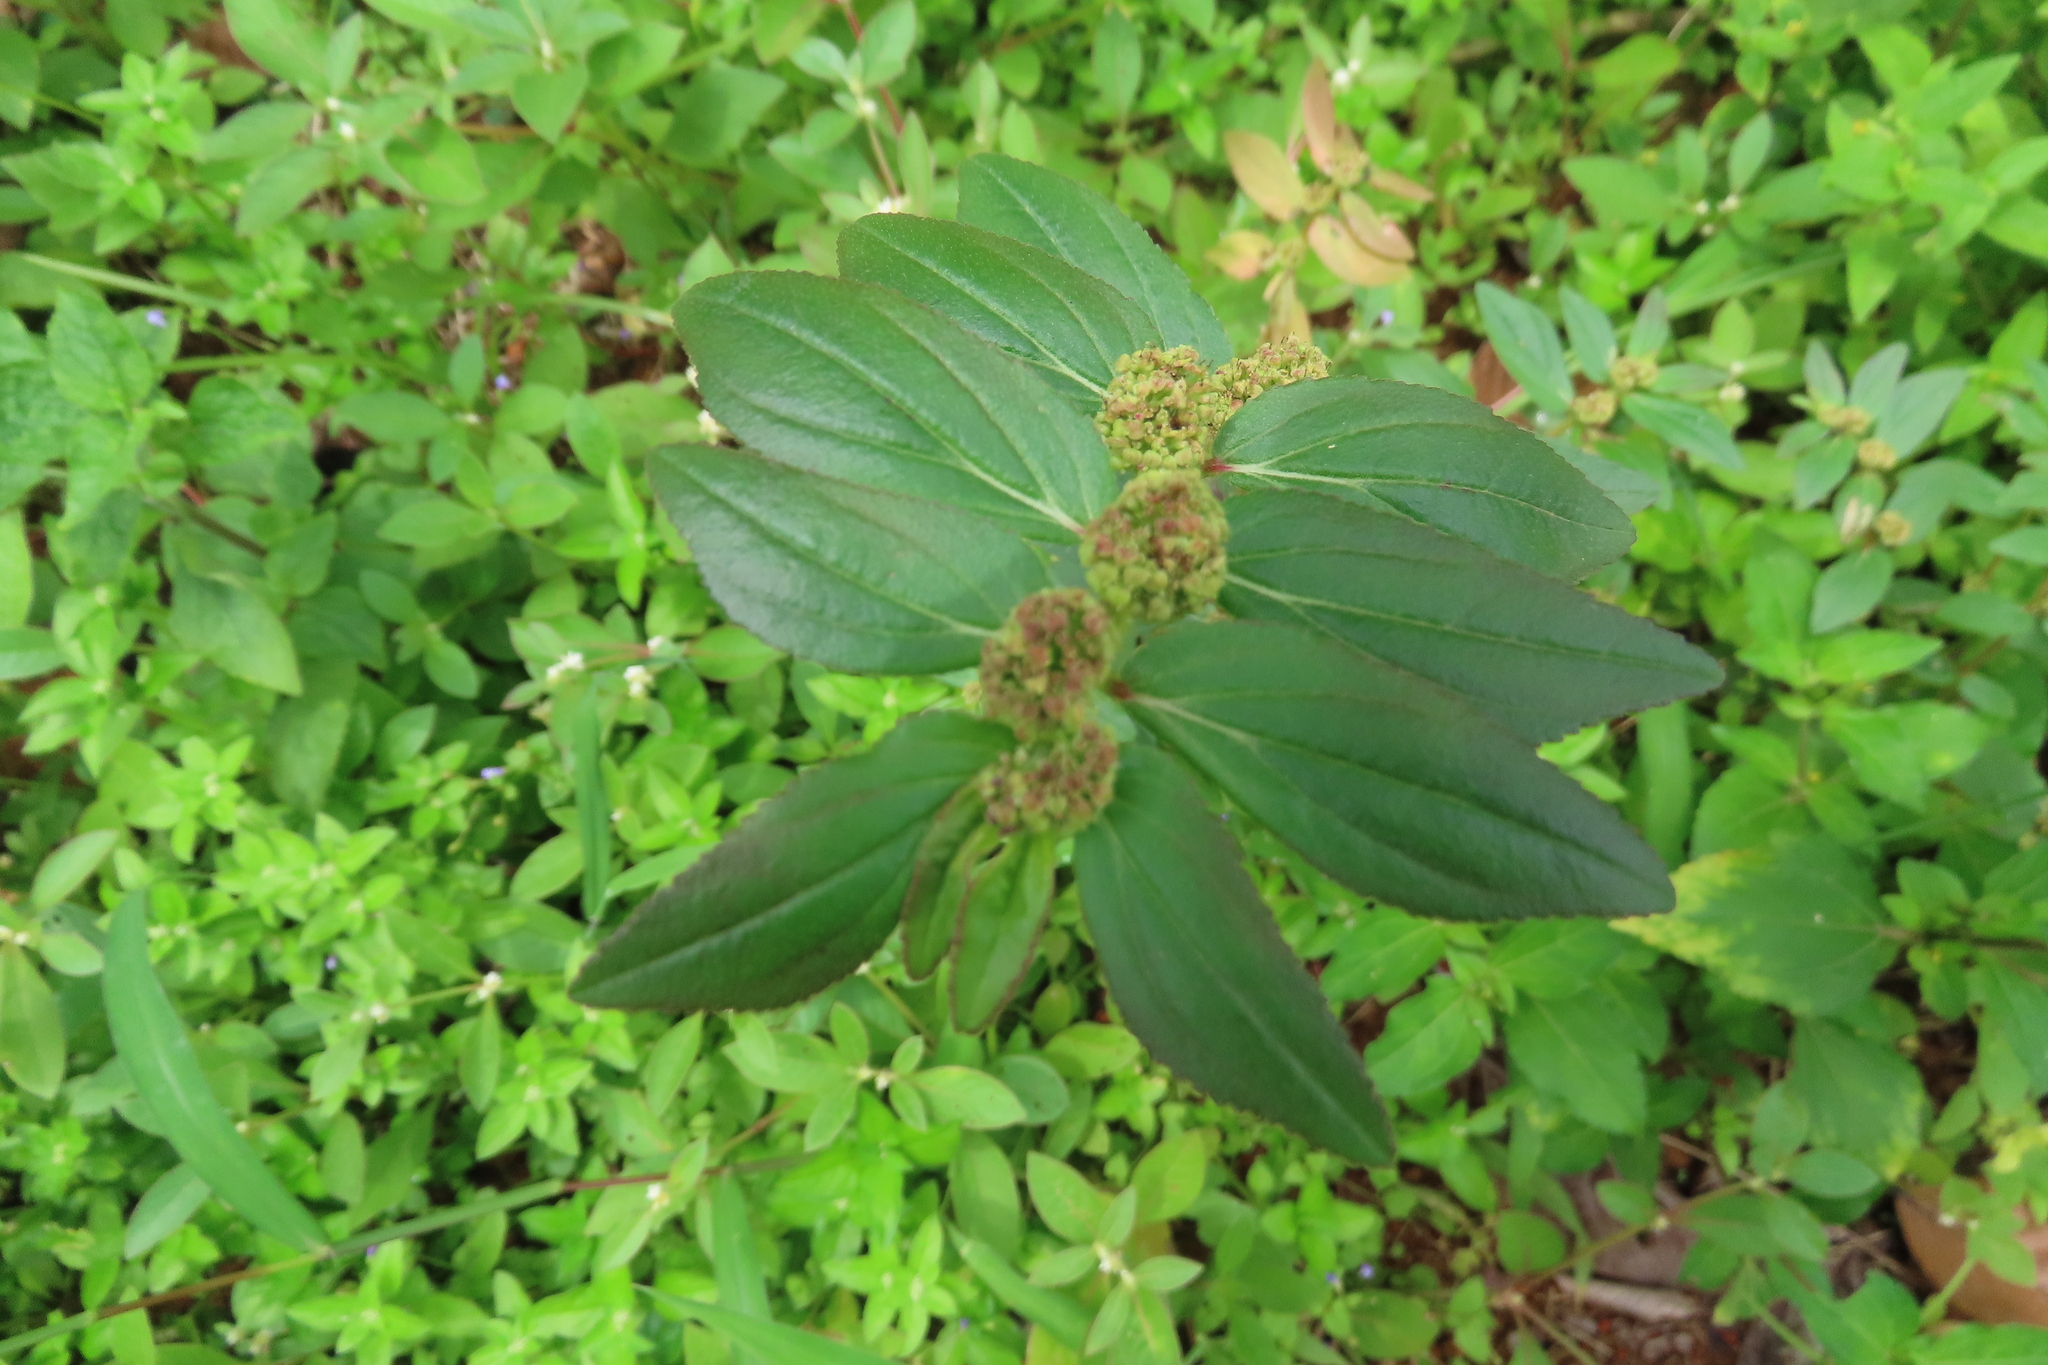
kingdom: Plantae
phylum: Tracheophyta
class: Magnoliopsida
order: Malpighiales
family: Euphorbiaceae
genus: Euphorbia
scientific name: Euphorbia hirta
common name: Pillpod sandmat
